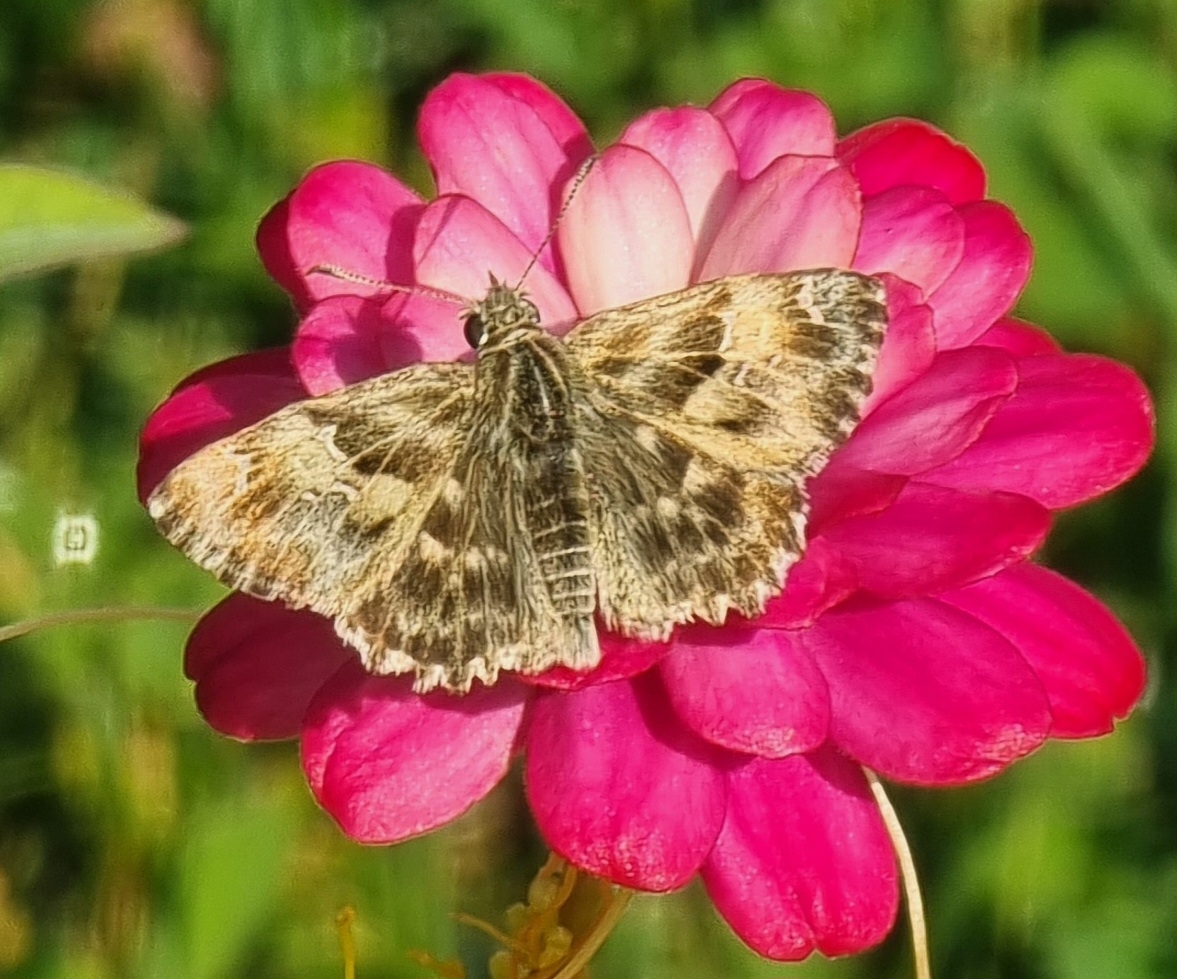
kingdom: Animalia
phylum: Arthropoda
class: Insecta
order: Lepidoptera
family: Hesperiidae
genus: Carcharodus
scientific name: Carcharodus alceae
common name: Mallow skipper
